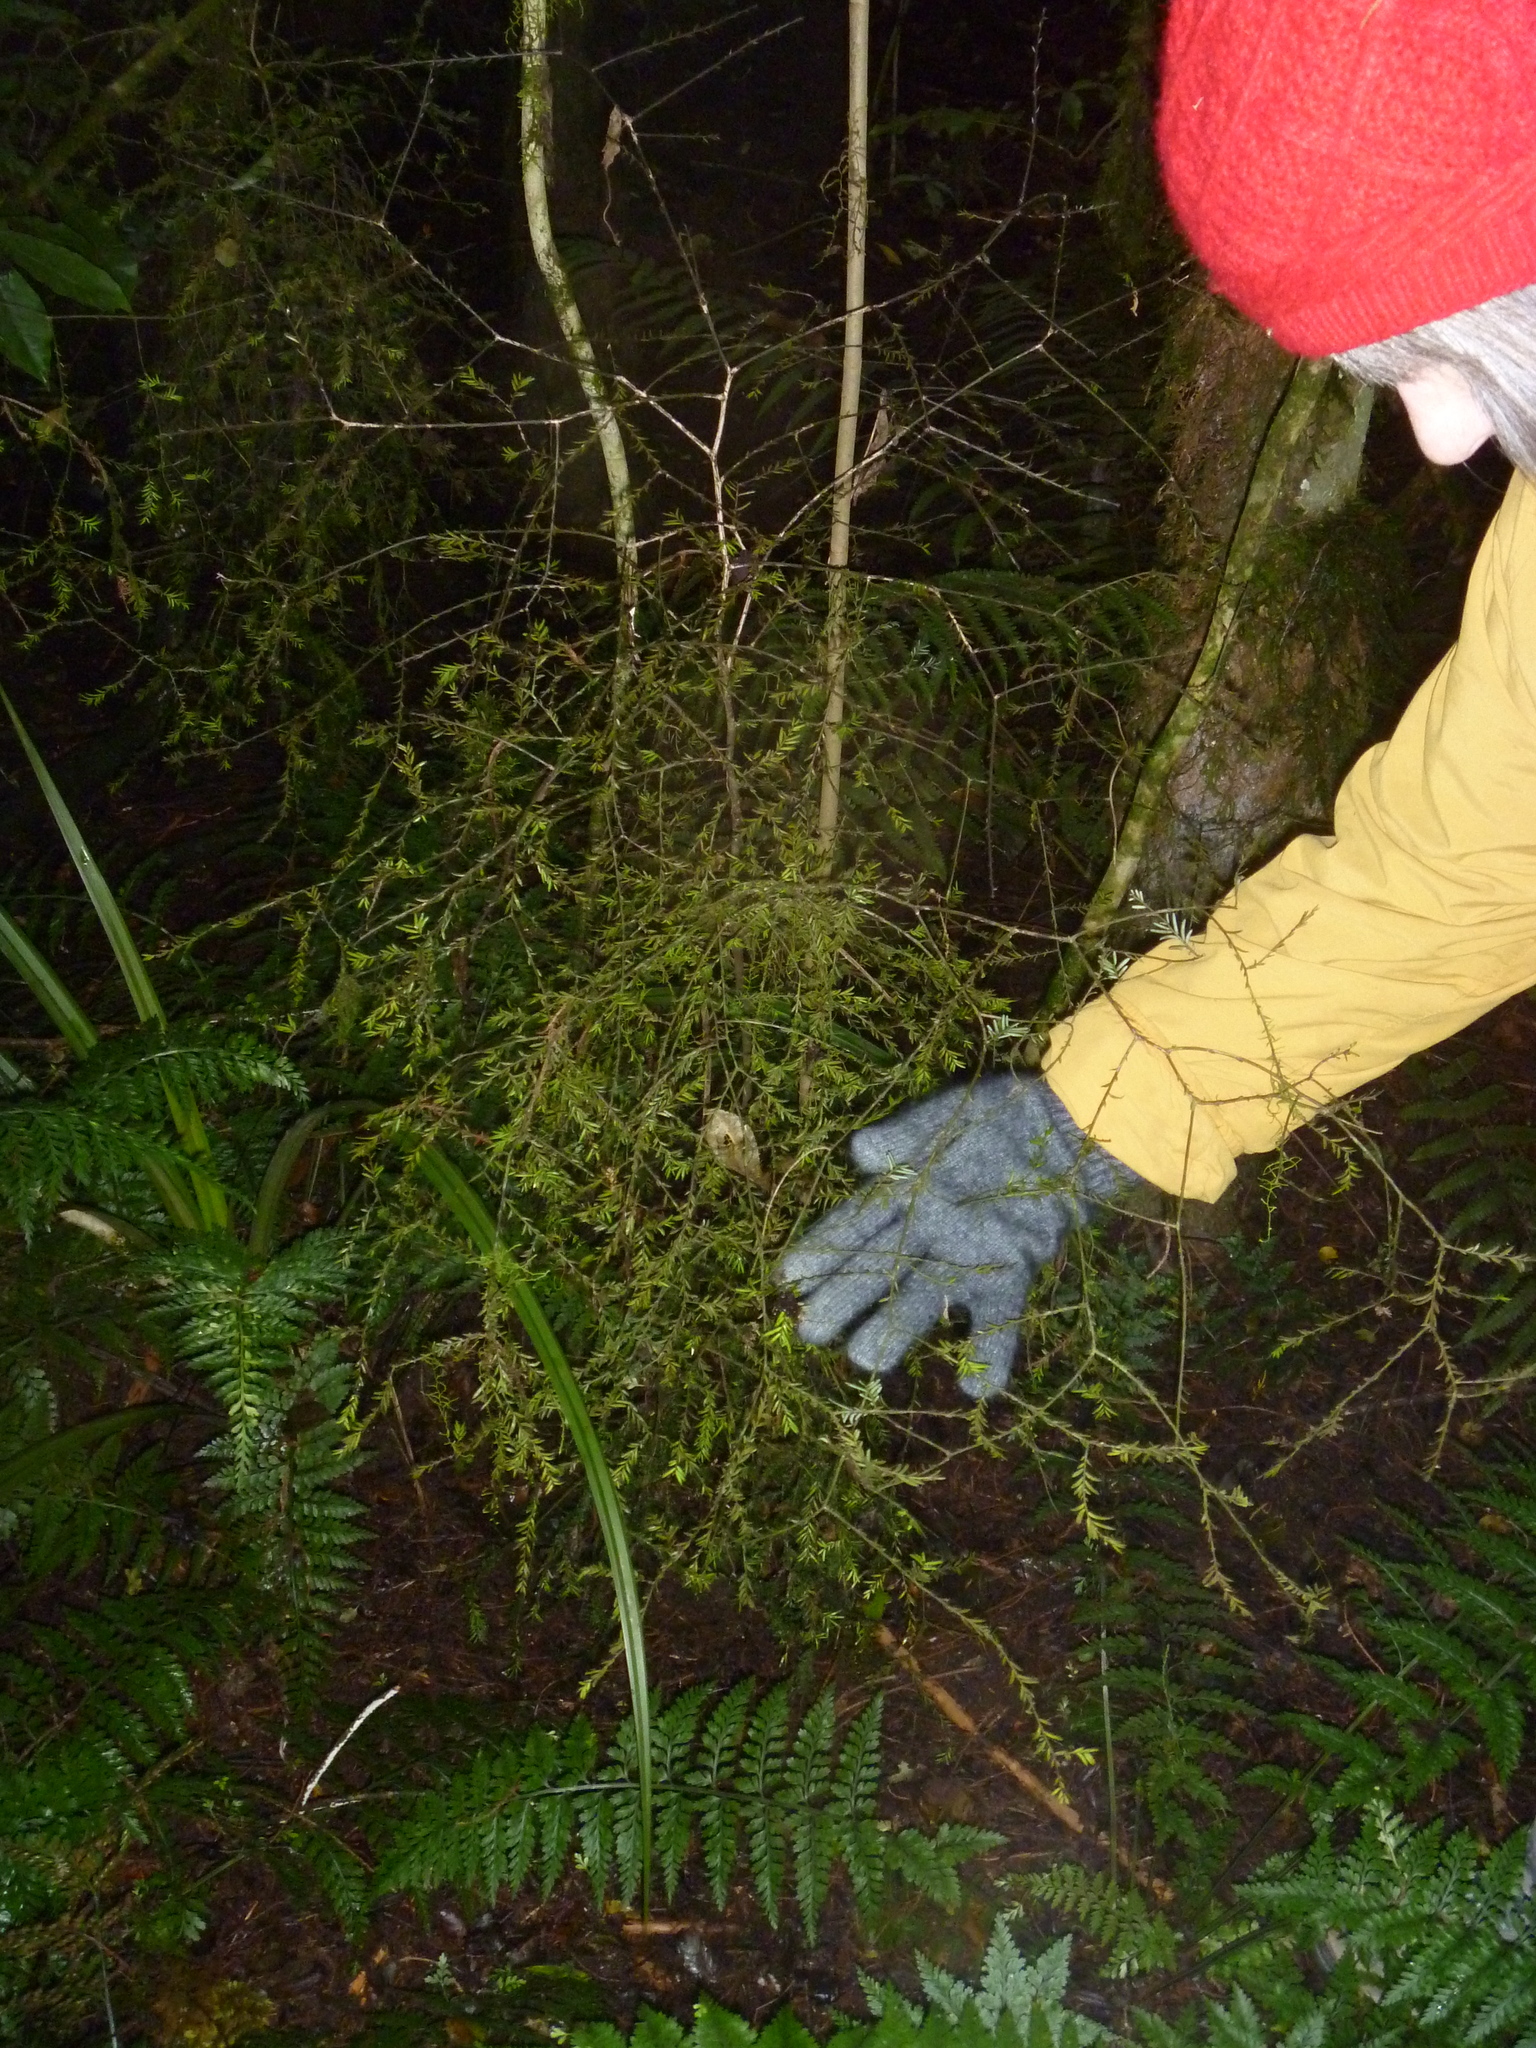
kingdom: Plantae
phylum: Tracheophyta
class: Pinopsida
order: Pinales
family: Podocarpaceae
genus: Prumnopitys
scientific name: Prumnopitys taxifolia
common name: Matai
